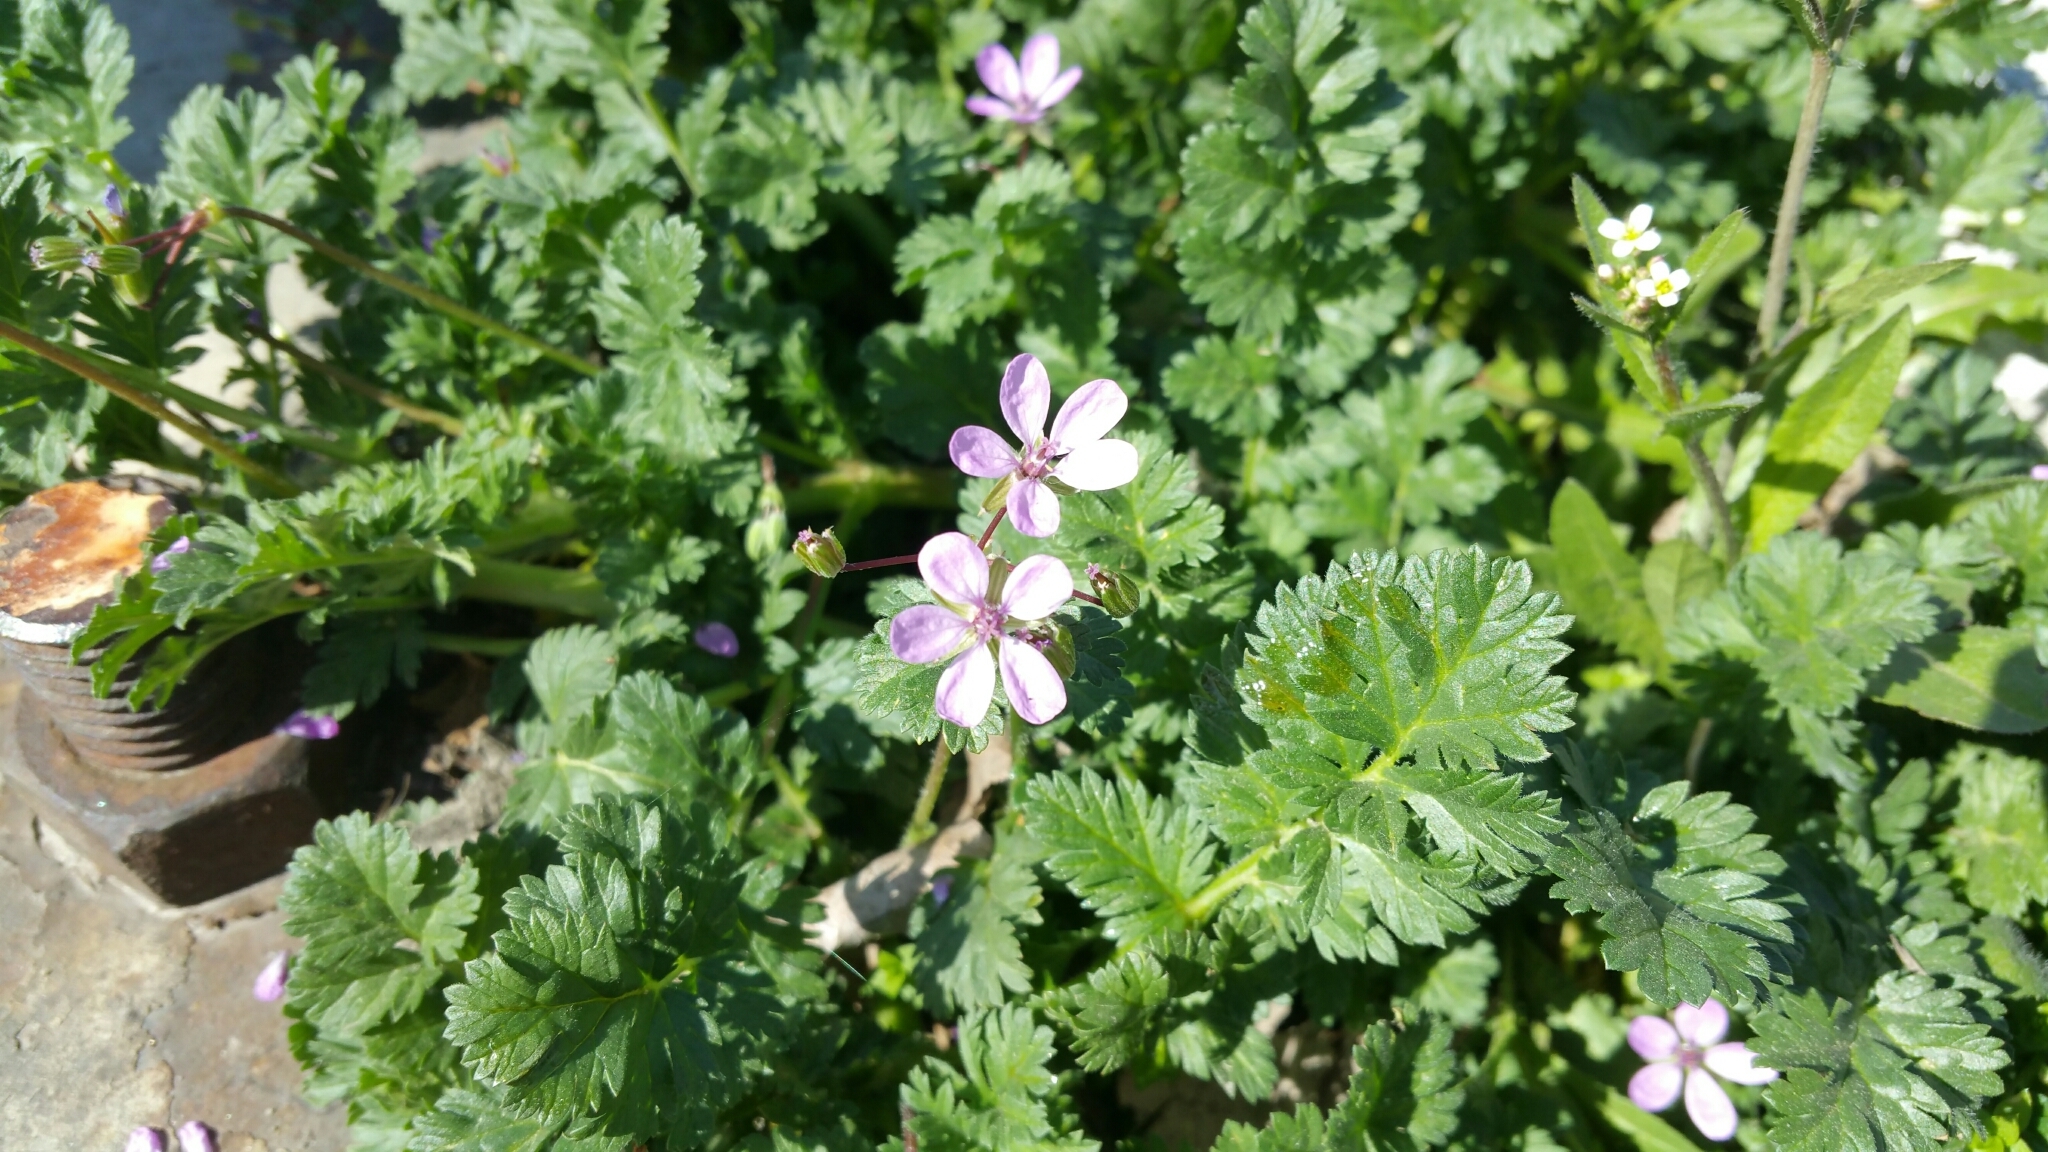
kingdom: Plantae
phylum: Tracheophyta
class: Magnoliopsida
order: Geraniales
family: Geraniaceae
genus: Erodium
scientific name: Erodium cicutarium
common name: Common stork's-bill
